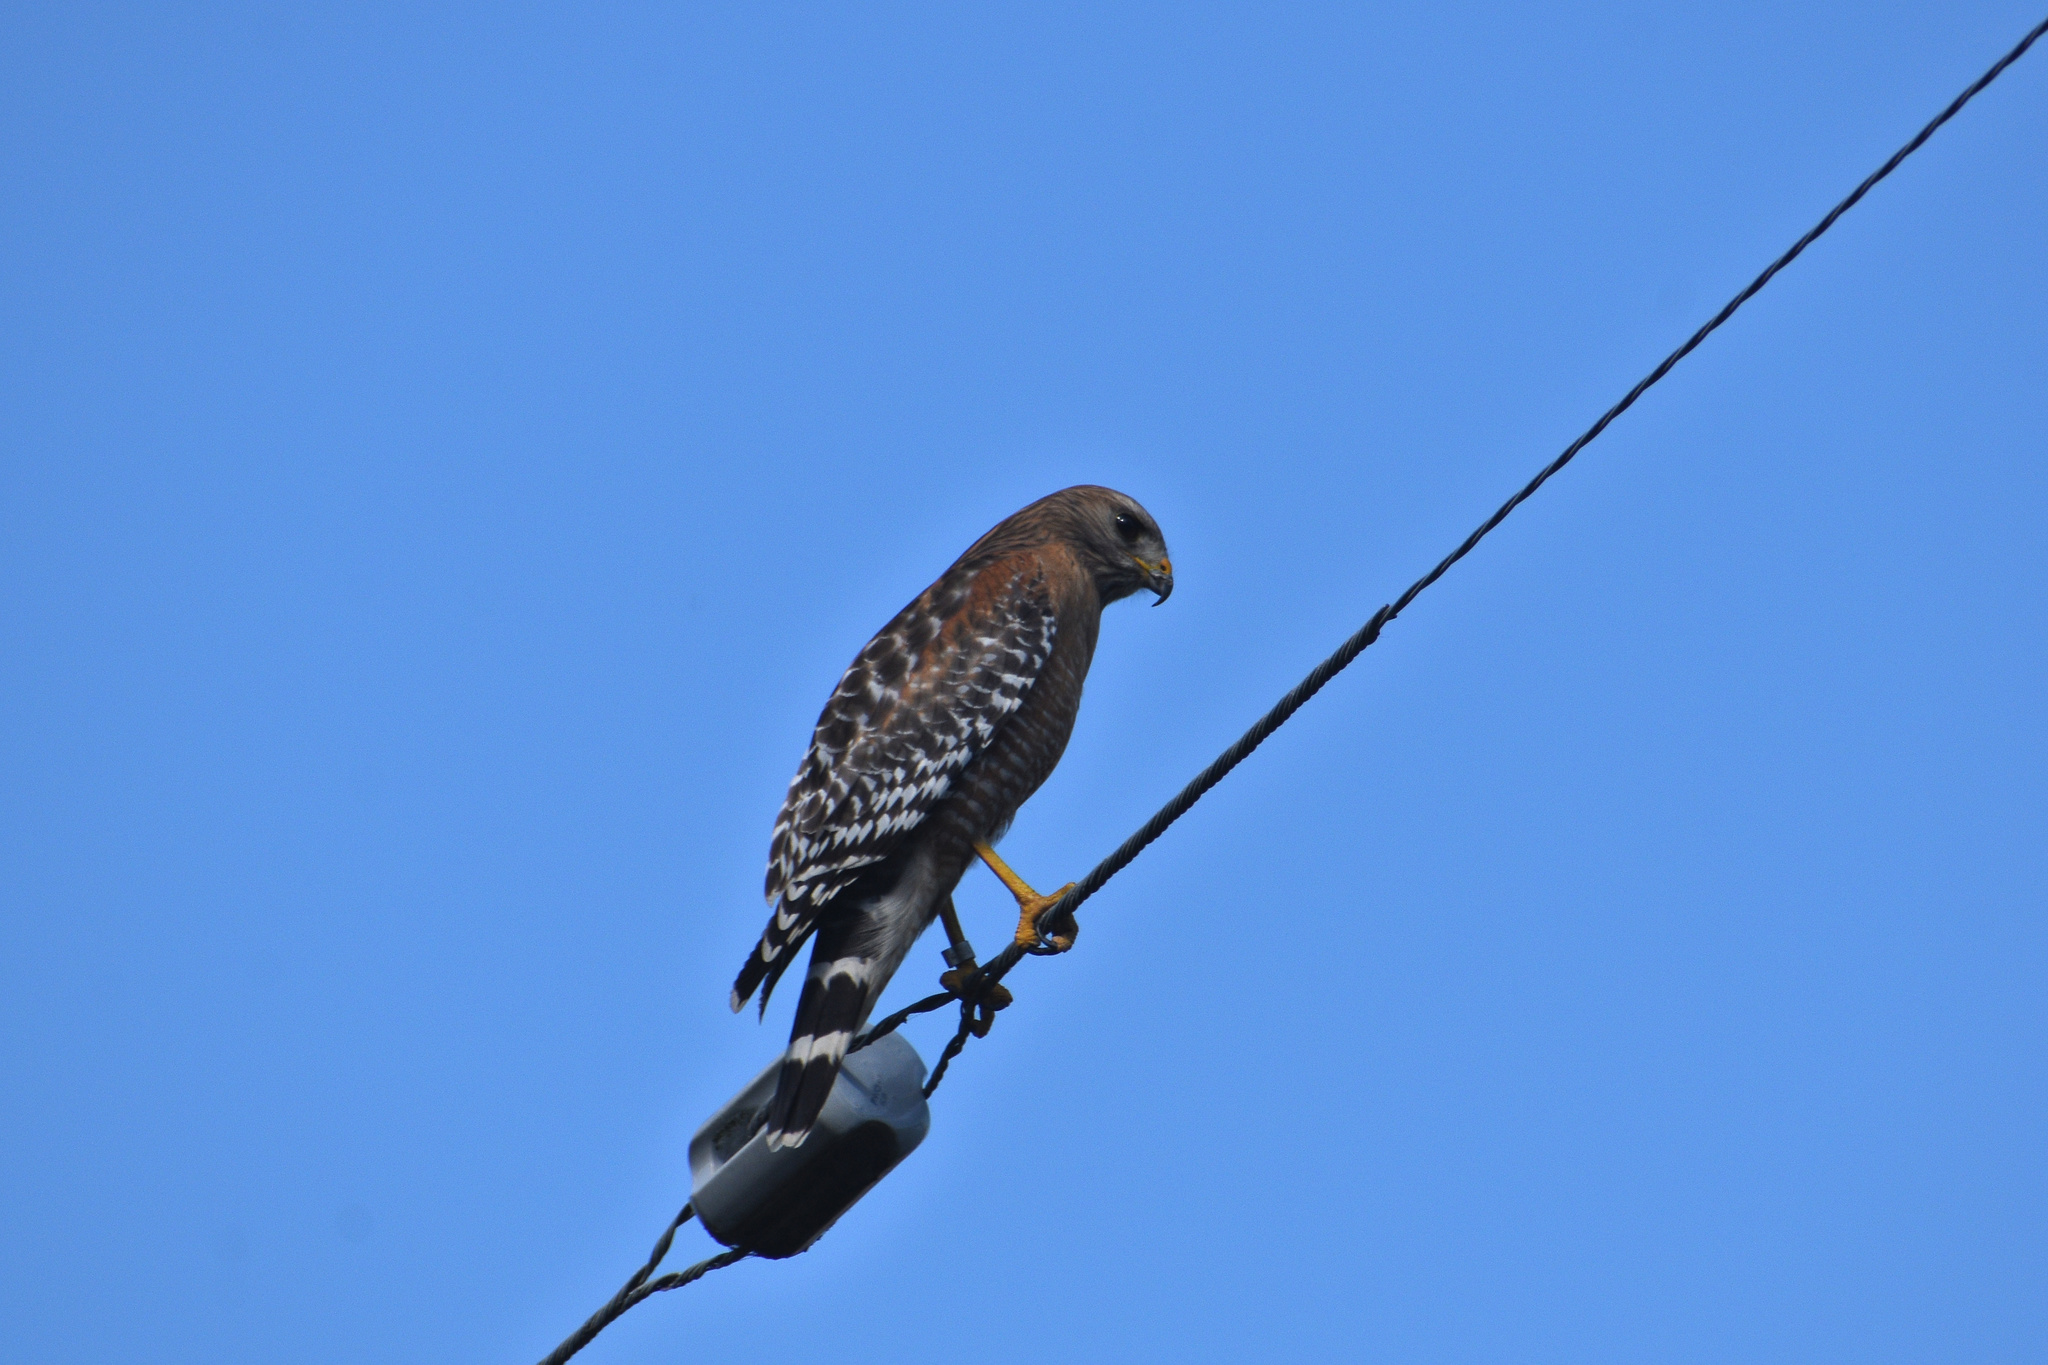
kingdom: Animalia
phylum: Chordata
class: Aves
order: Accipitriformes
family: Accipitridae
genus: Buteo
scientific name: Buteo lineatus
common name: Red-shouldered hawk
